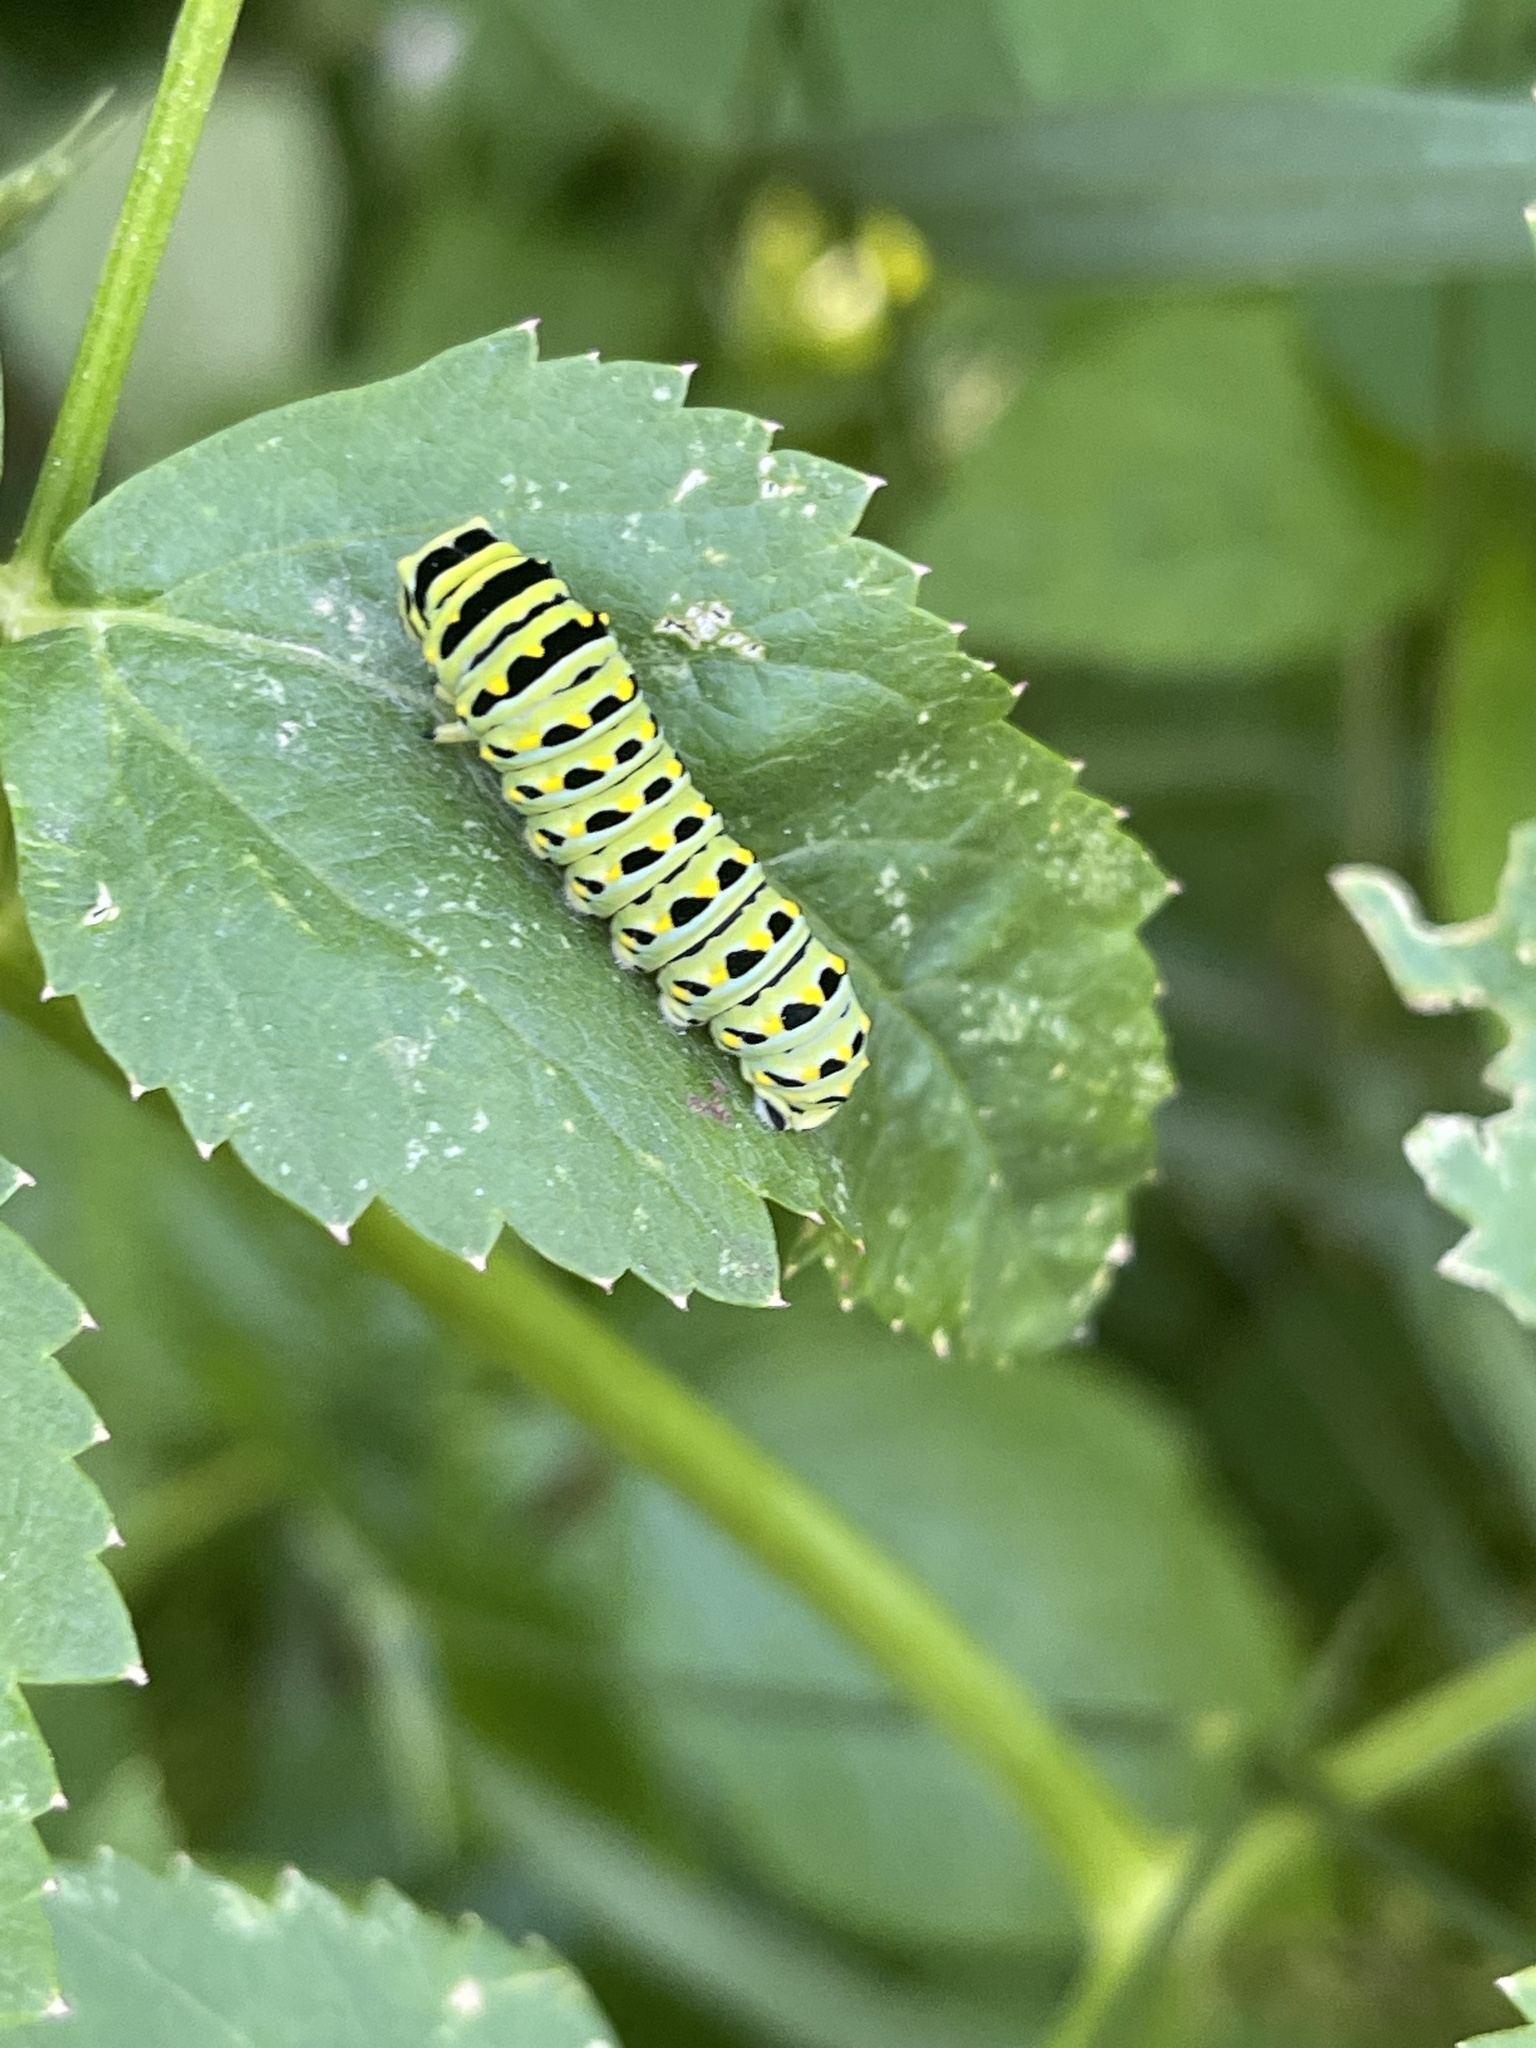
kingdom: Animalia
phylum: Arthropoda
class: Insecta
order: Lepidoptera
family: Papilionidae
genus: Papilio
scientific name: Papilio zelicaon
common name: Anise swallowtail
